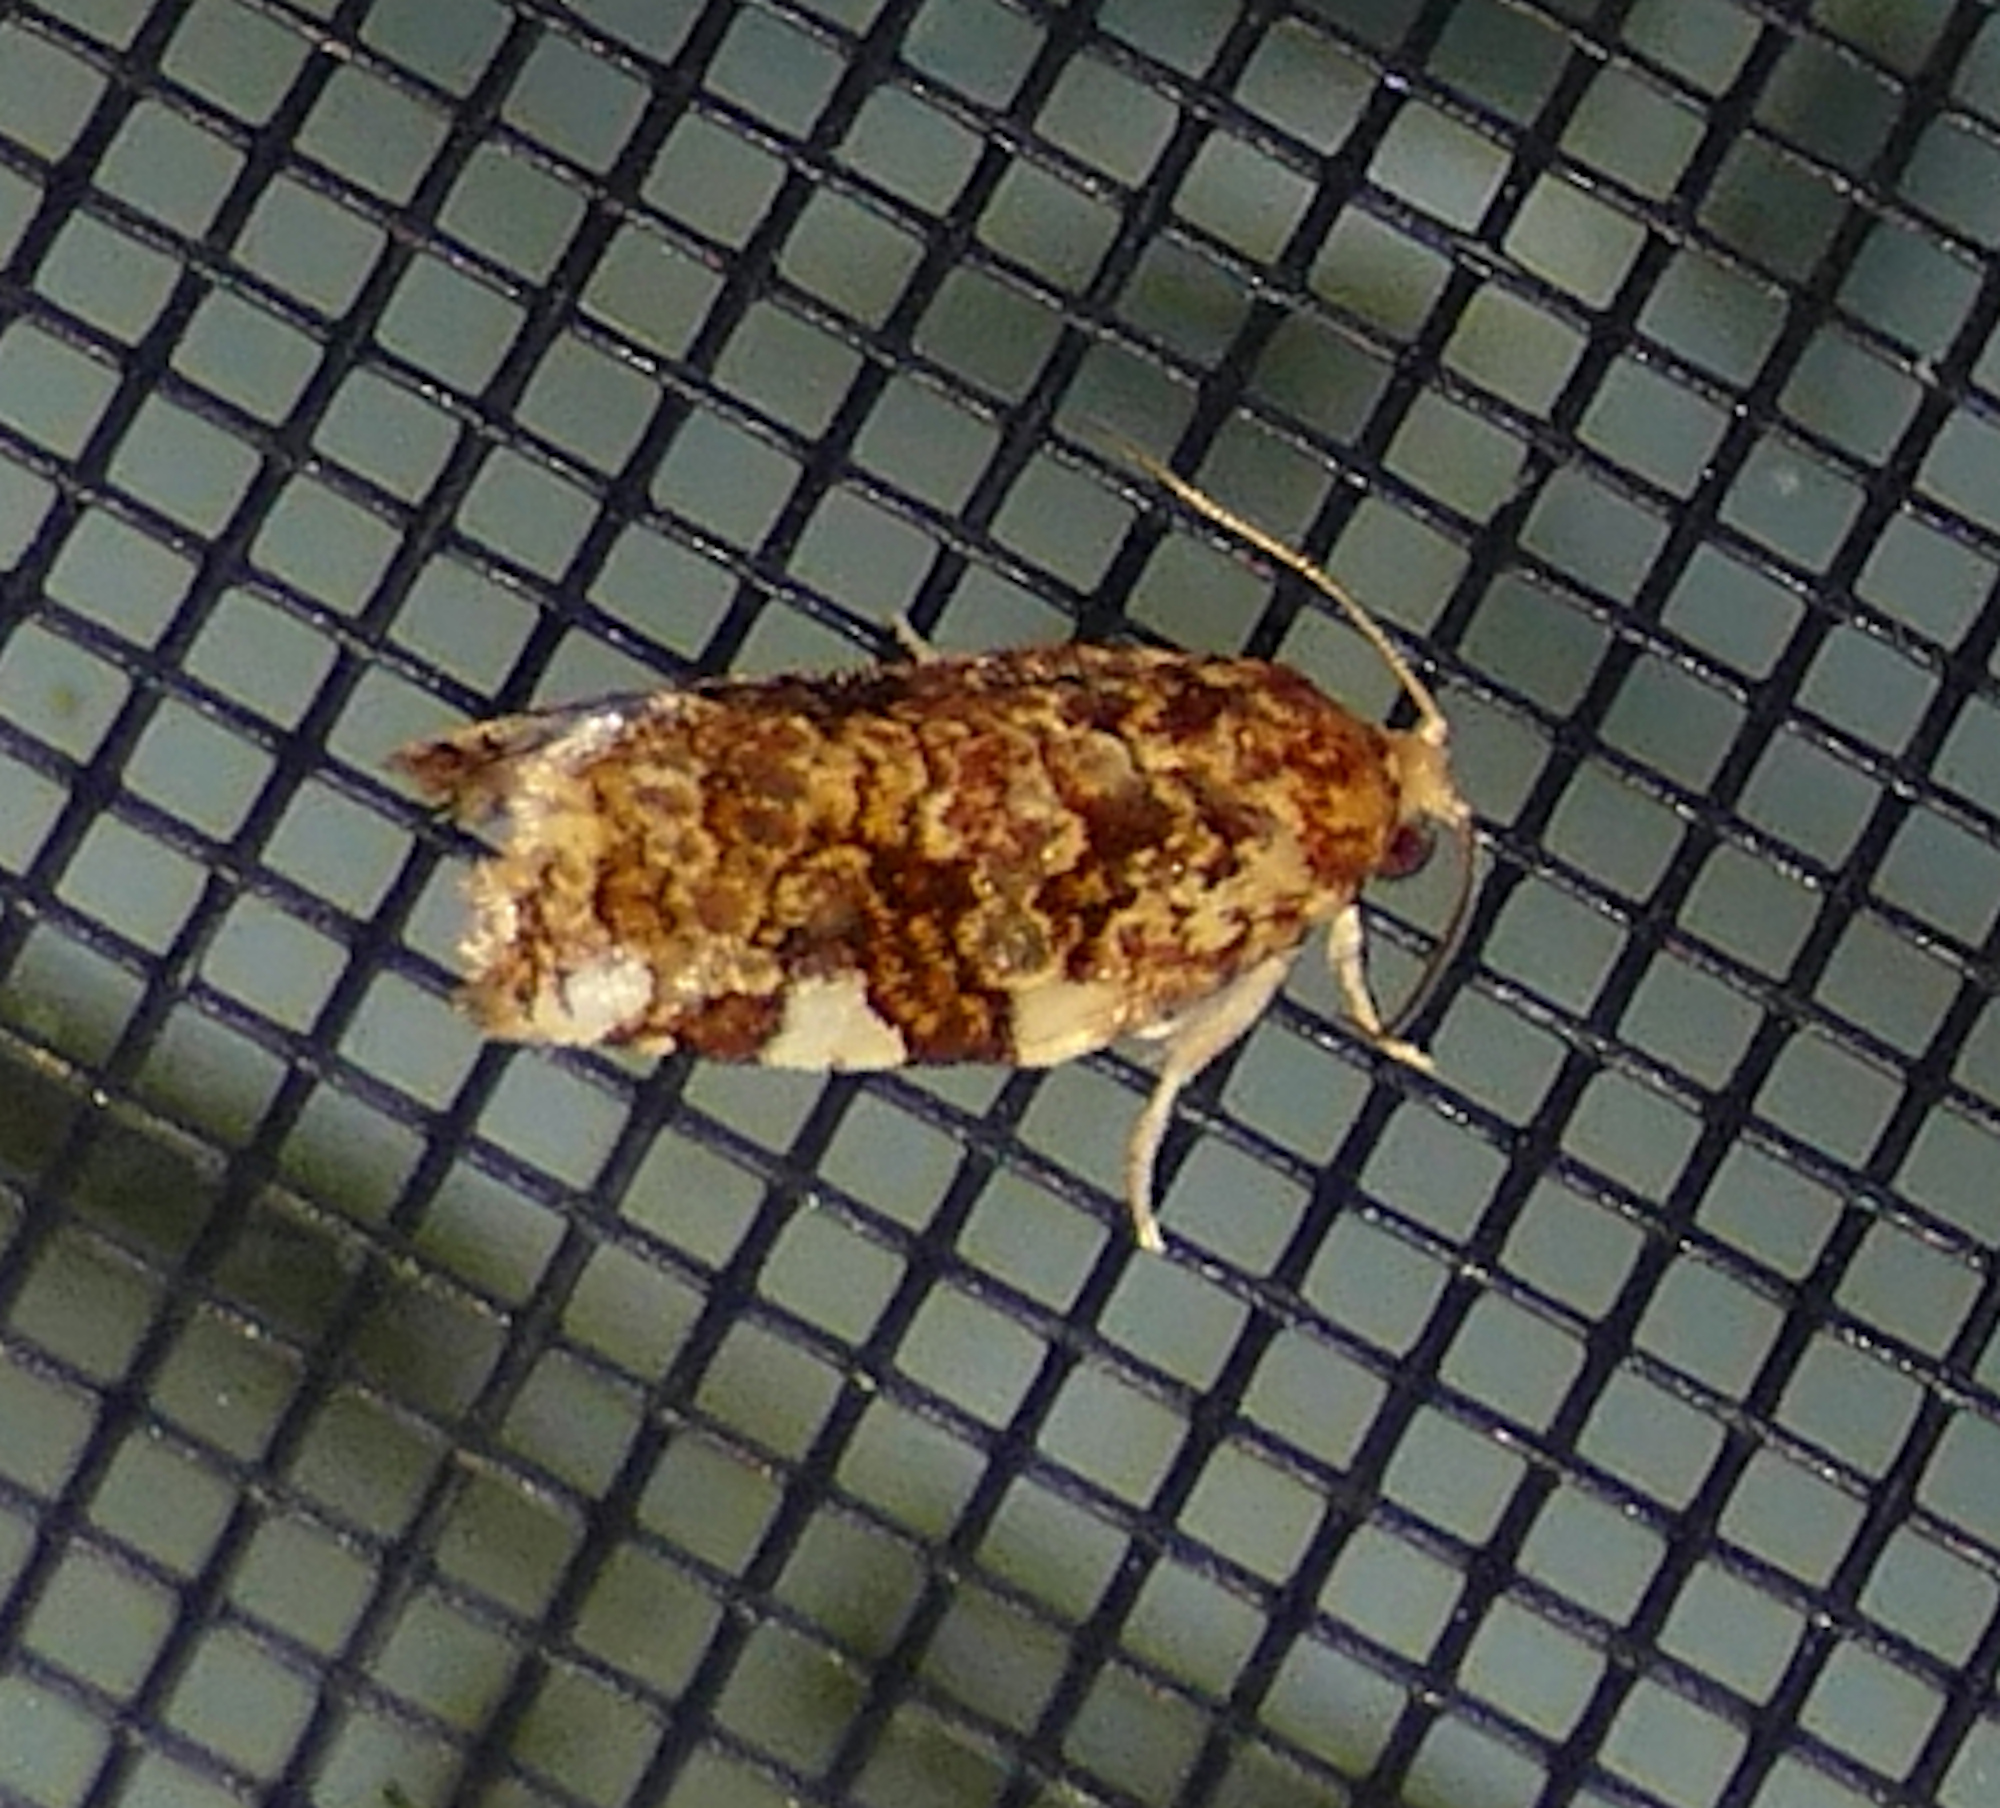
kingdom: Animalia
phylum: Arthropoda
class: Insecta
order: Lepidoptera
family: Tortricidae
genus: Archips
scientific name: Archips argyrospila
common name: Fruit-tree leafroller moth
